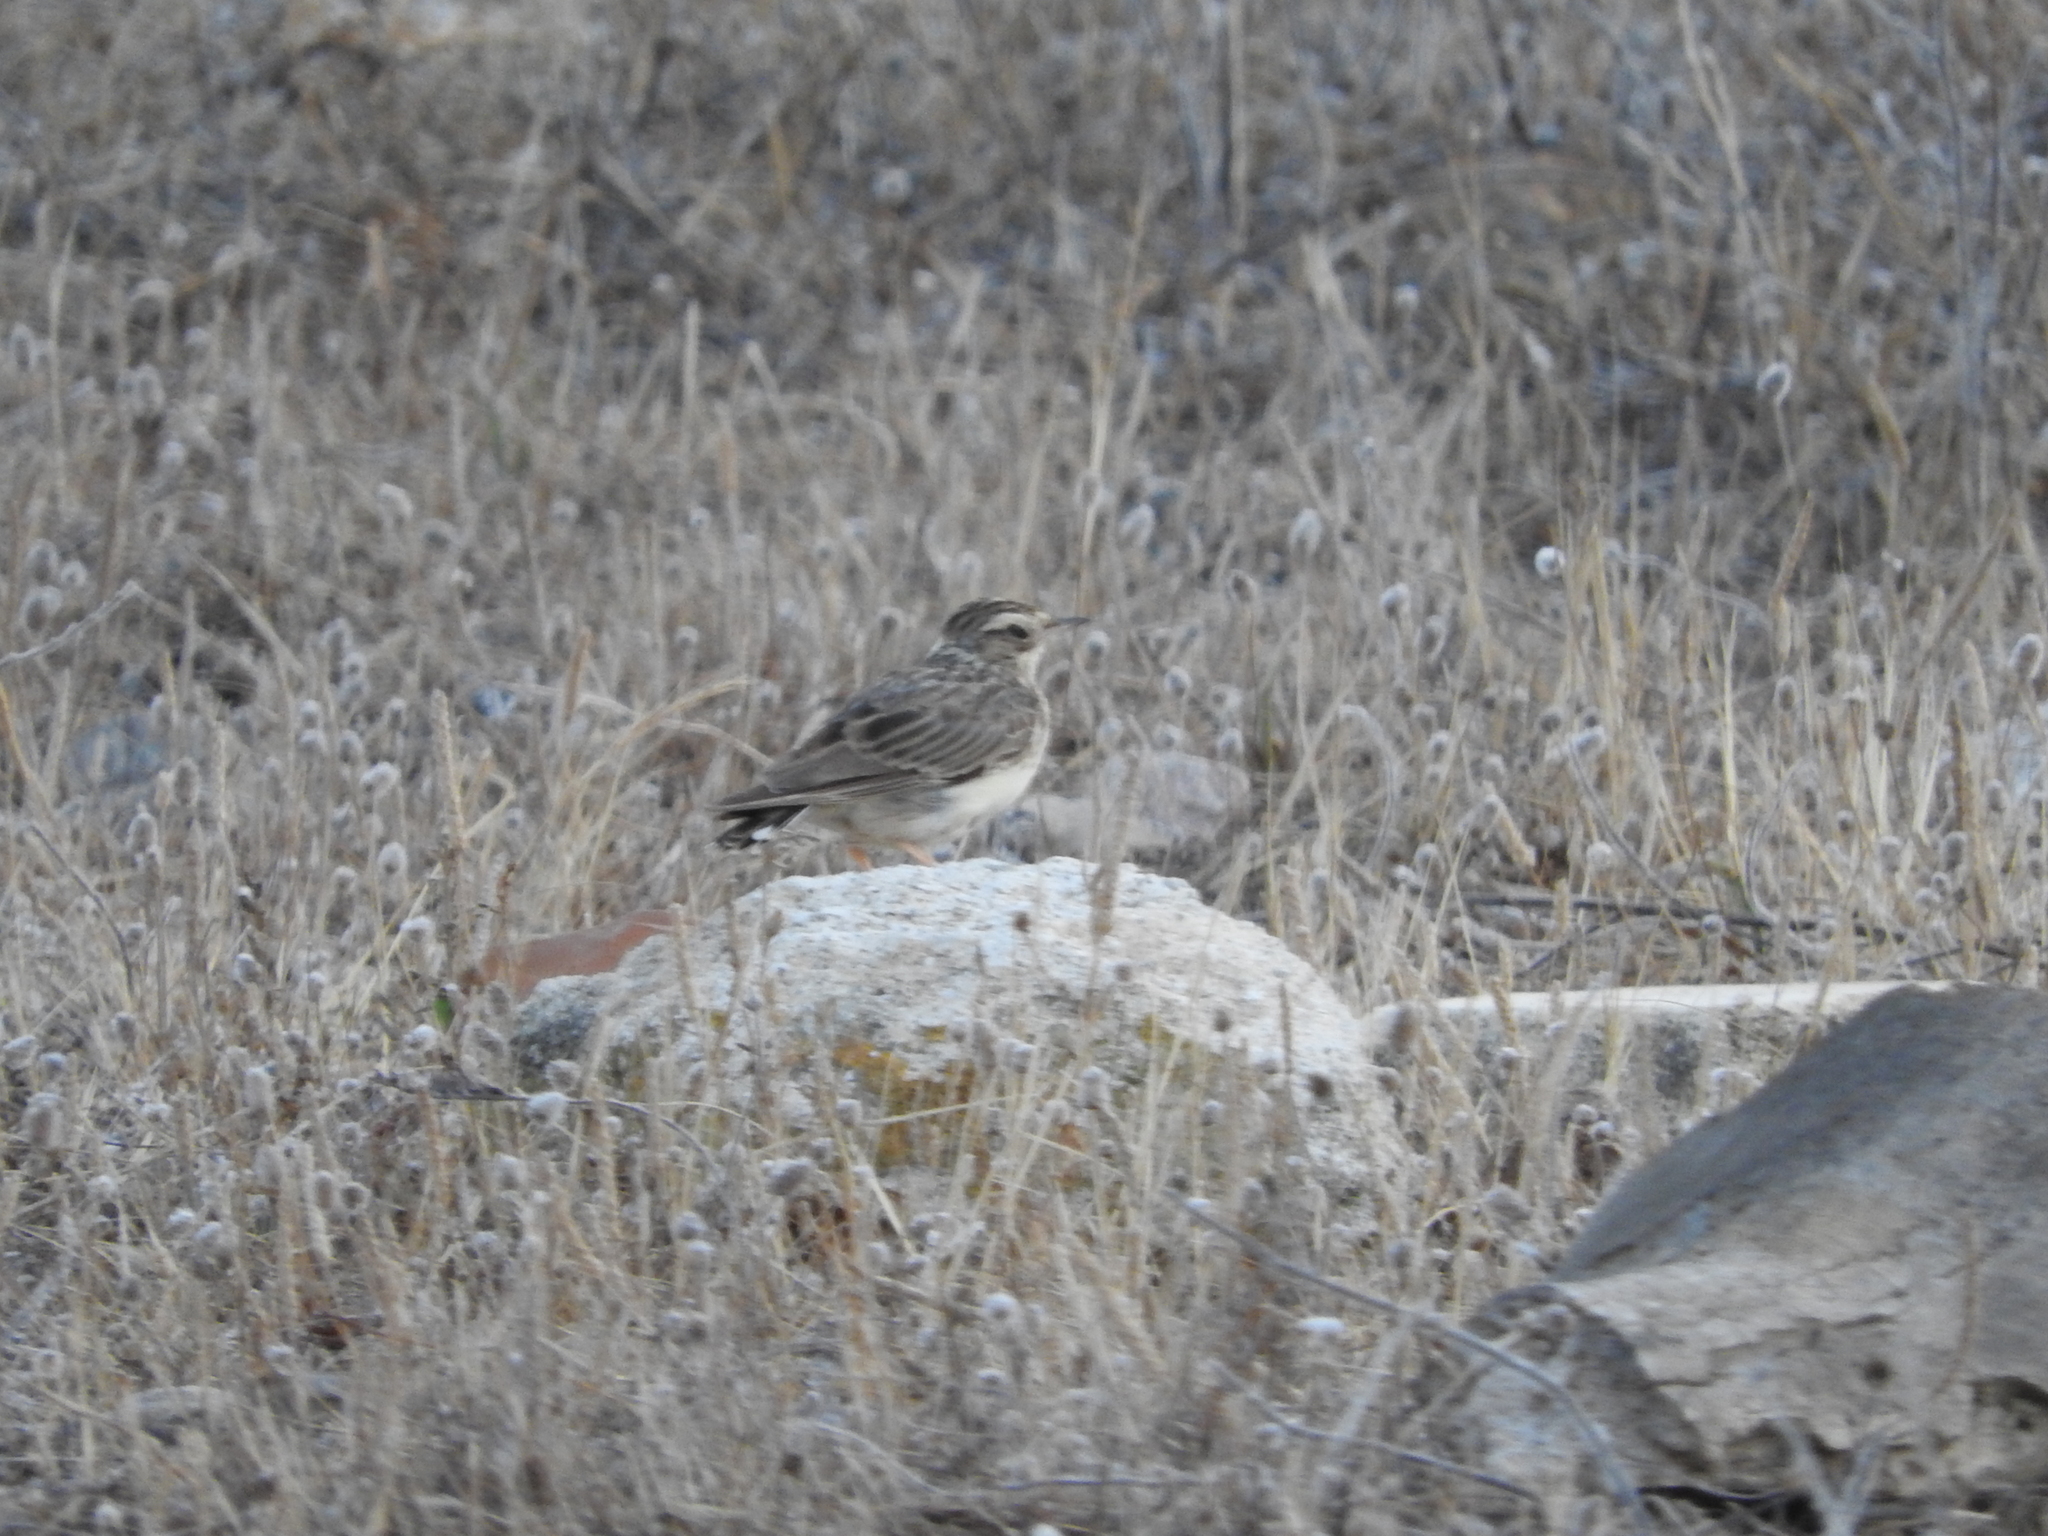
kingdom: Animalia
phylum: Chordata
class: Aves
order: Passeriformes
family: Alaudidae
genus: Lullula
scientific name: Lullula arborea
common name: Woodlark
